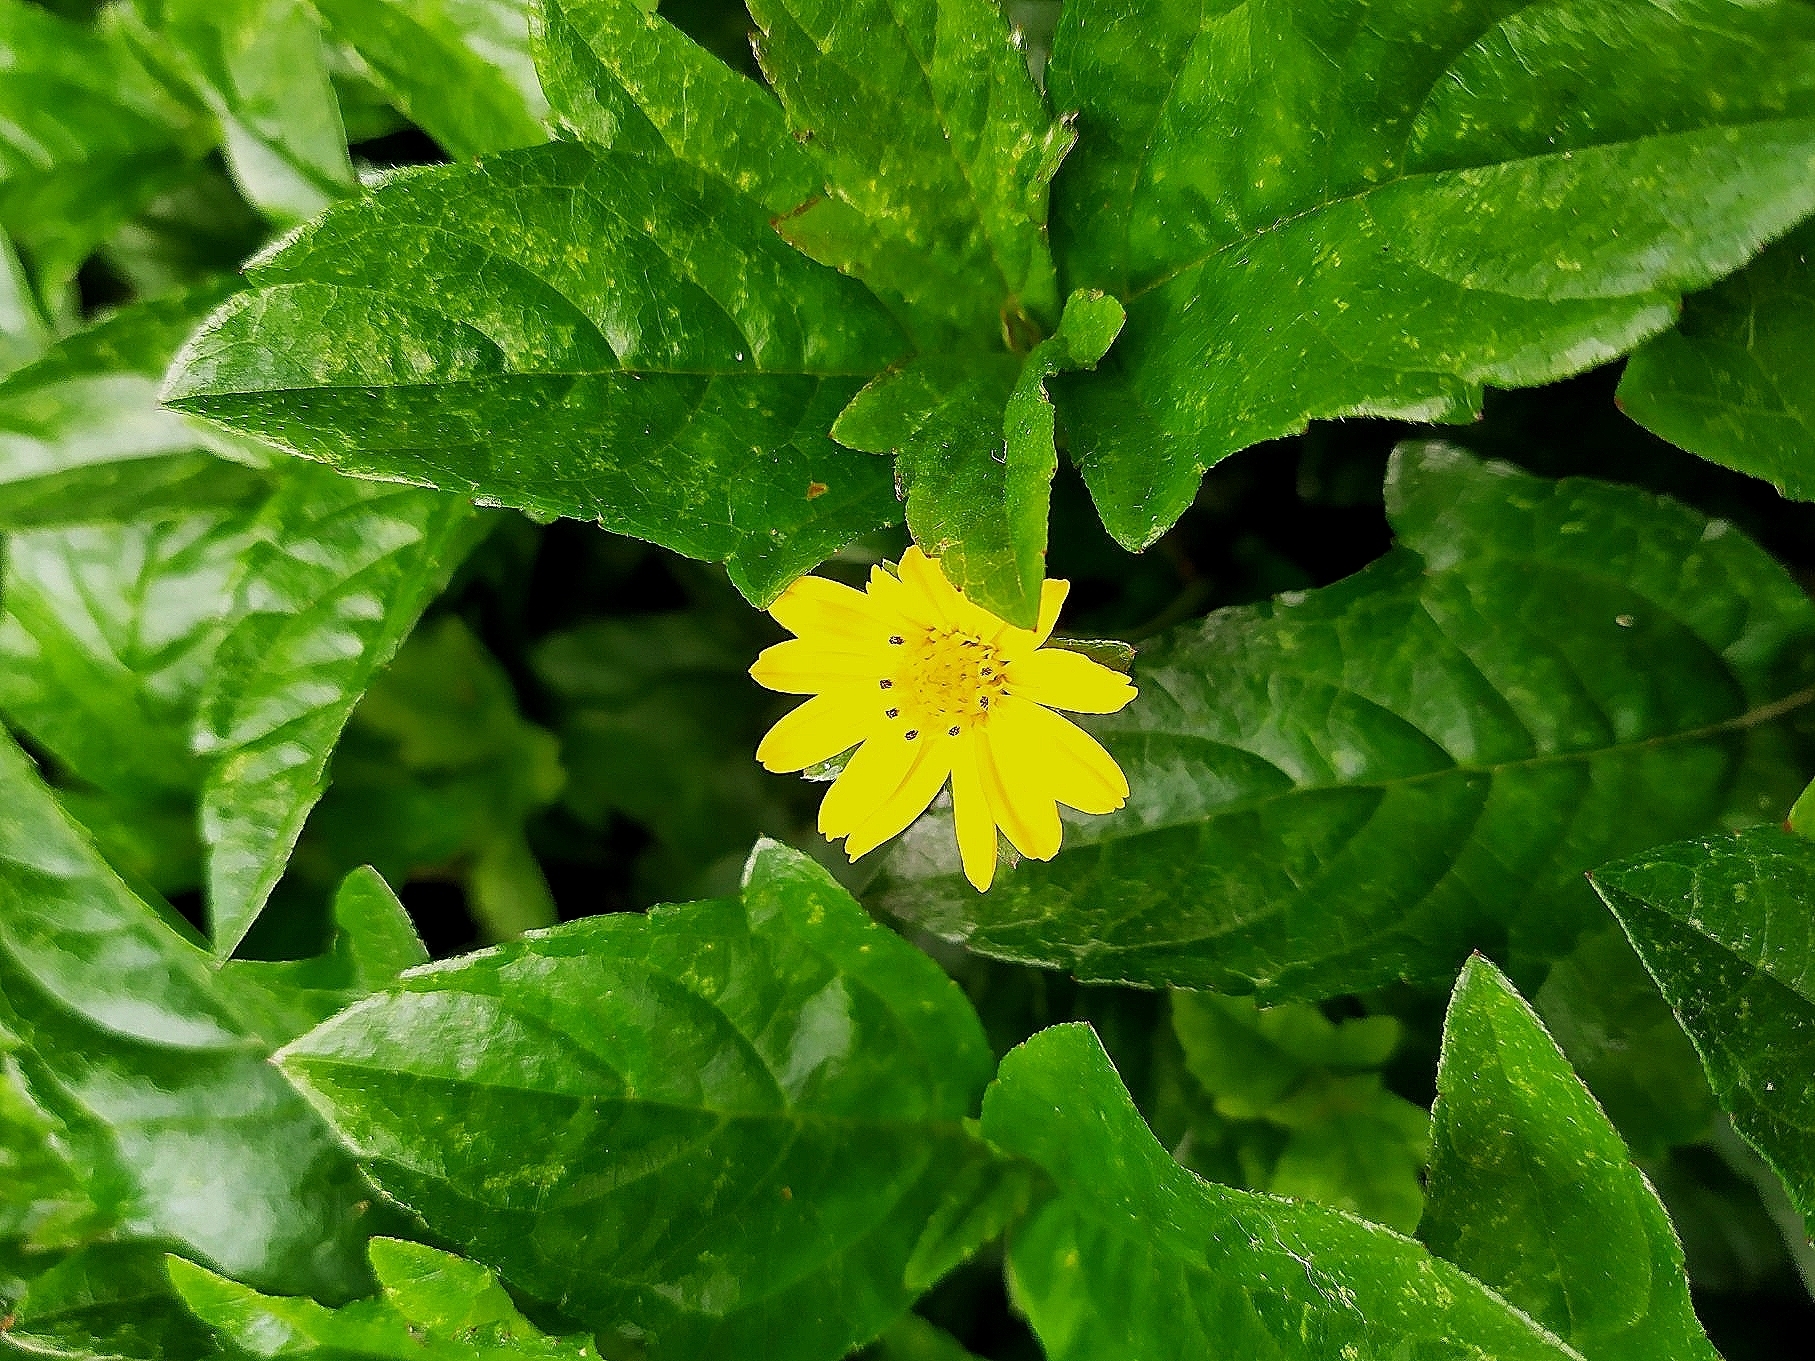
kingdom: Plantae
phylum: Tracheophyta
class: Magnoliopsida
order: Asterales
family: Asteraceae
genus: Sphagneticola
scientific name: Sphagneticola trilobata
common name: Bay biscayne creeping-oxeye
